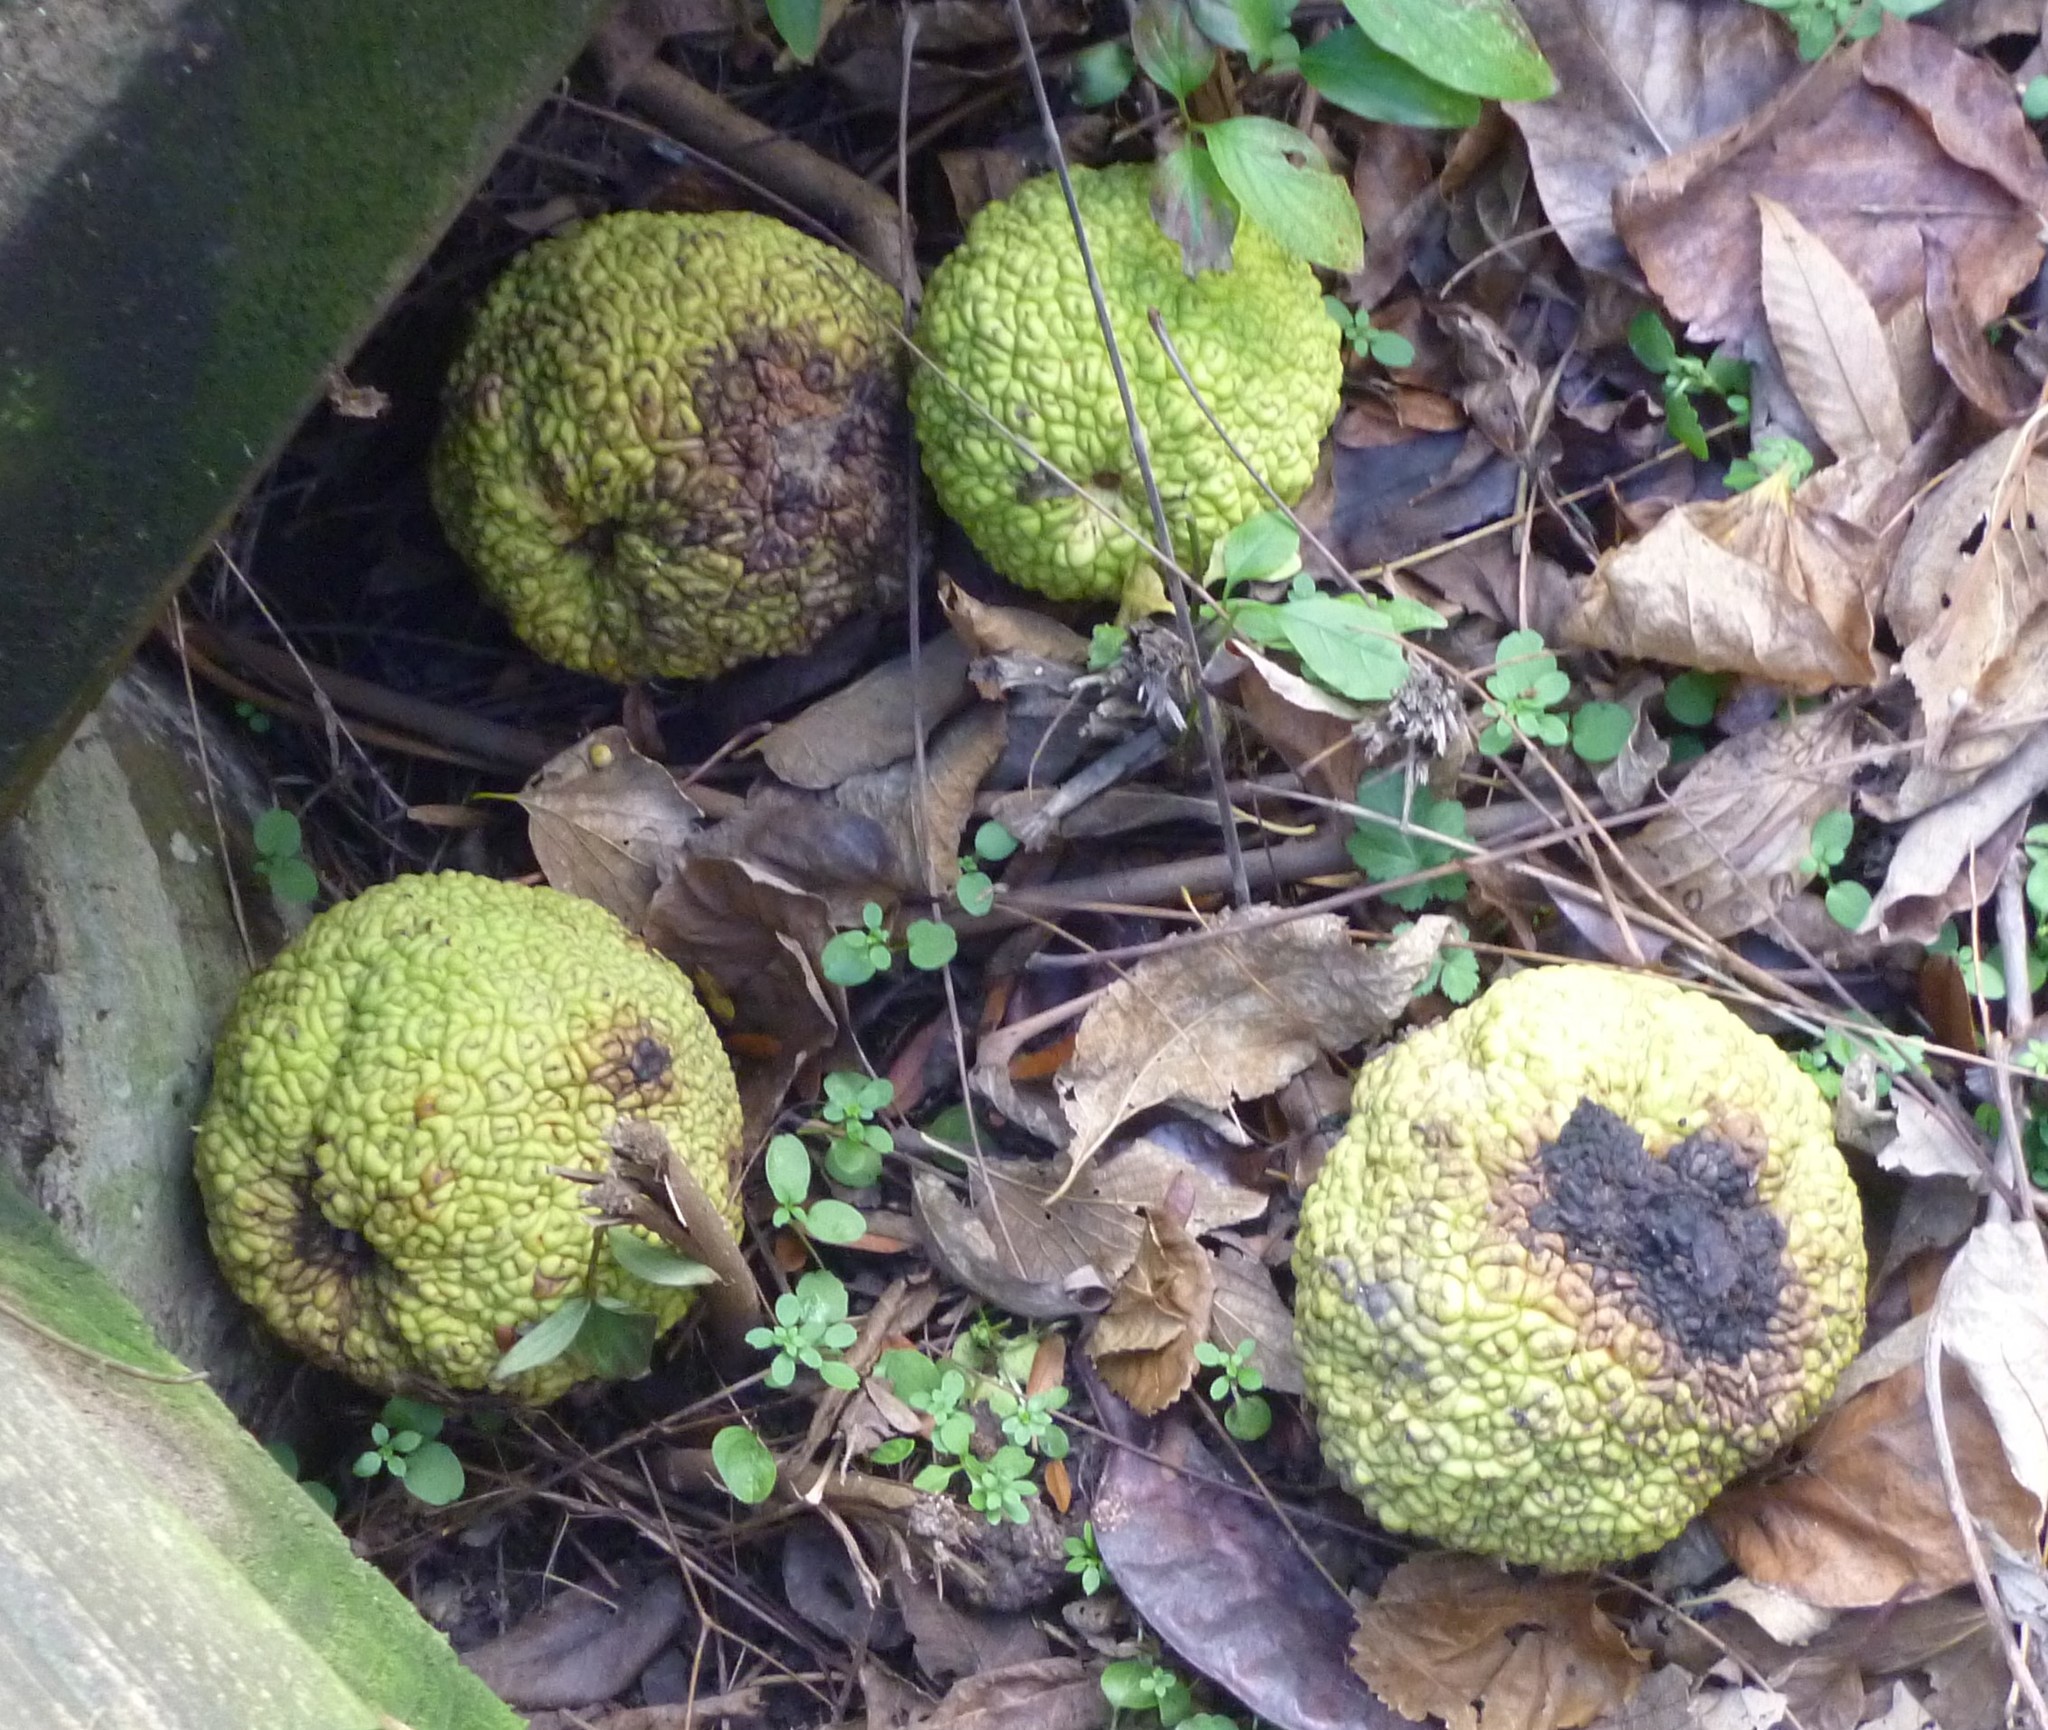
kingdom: Plantae
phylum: Tracheophyta
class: Magnoliopsida
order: Rosales
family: Moraceae
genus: Maclura
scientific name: Maclura pomifera
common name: Osage-orange
